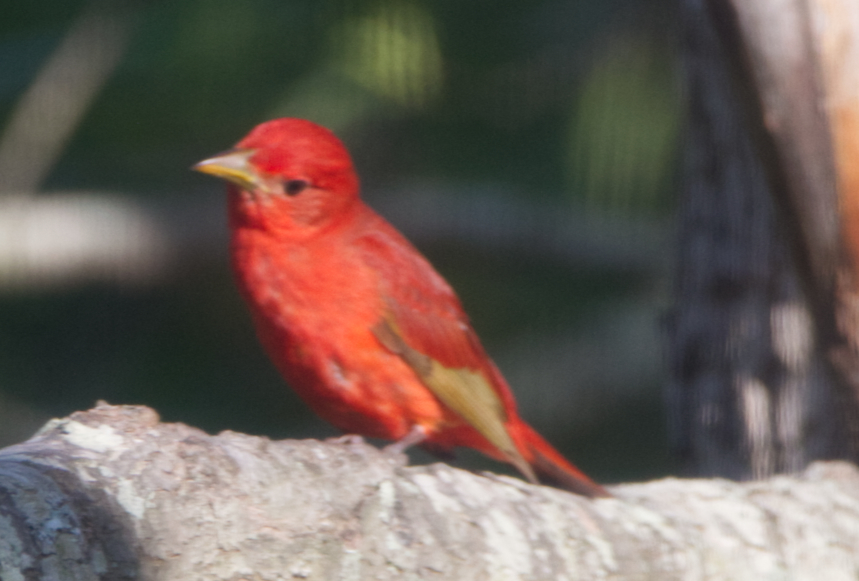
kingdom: Animalia
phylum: Chordata
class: Aves
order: Passeriformes
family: Cardinalidae
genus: Piranga
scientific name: Piranga rubra
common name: Summer tanager
